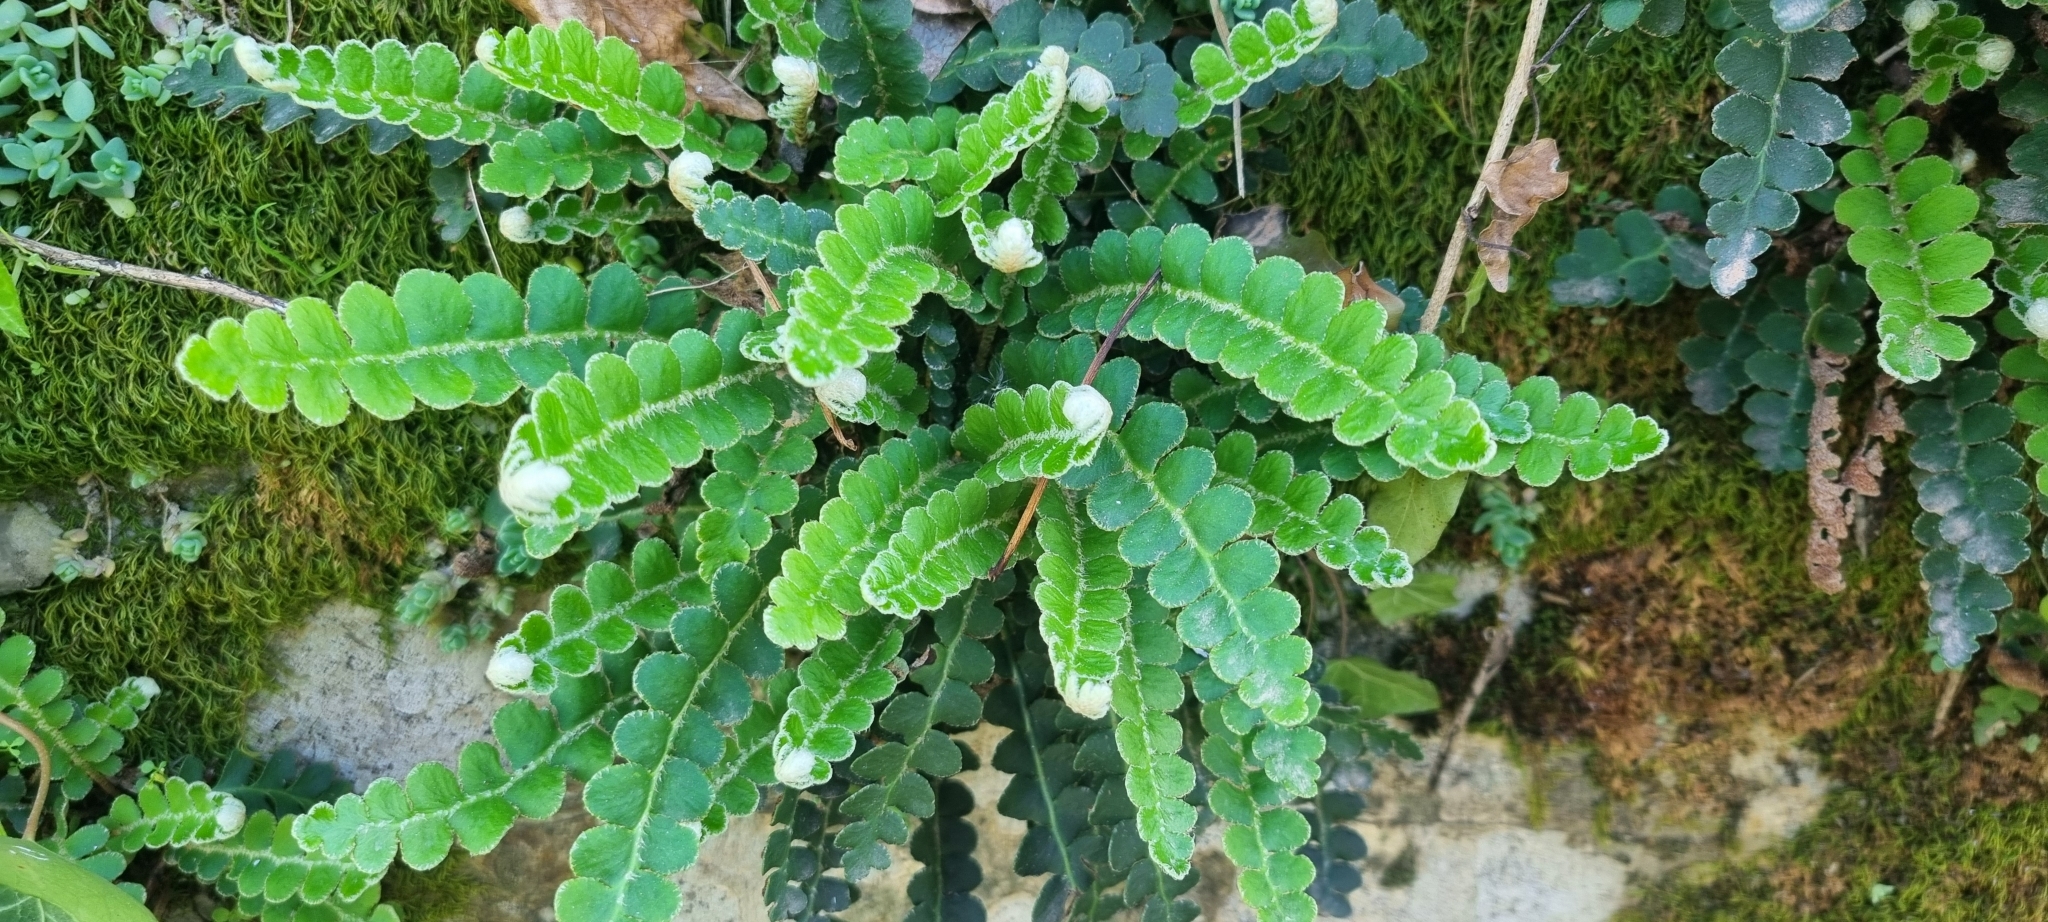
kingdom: Plantae
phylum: Tracheophyta
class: Polypodiopsida
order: Polypodiales
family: Aspleniaceae
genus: Asplenium
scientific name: Asplenium ceterach
